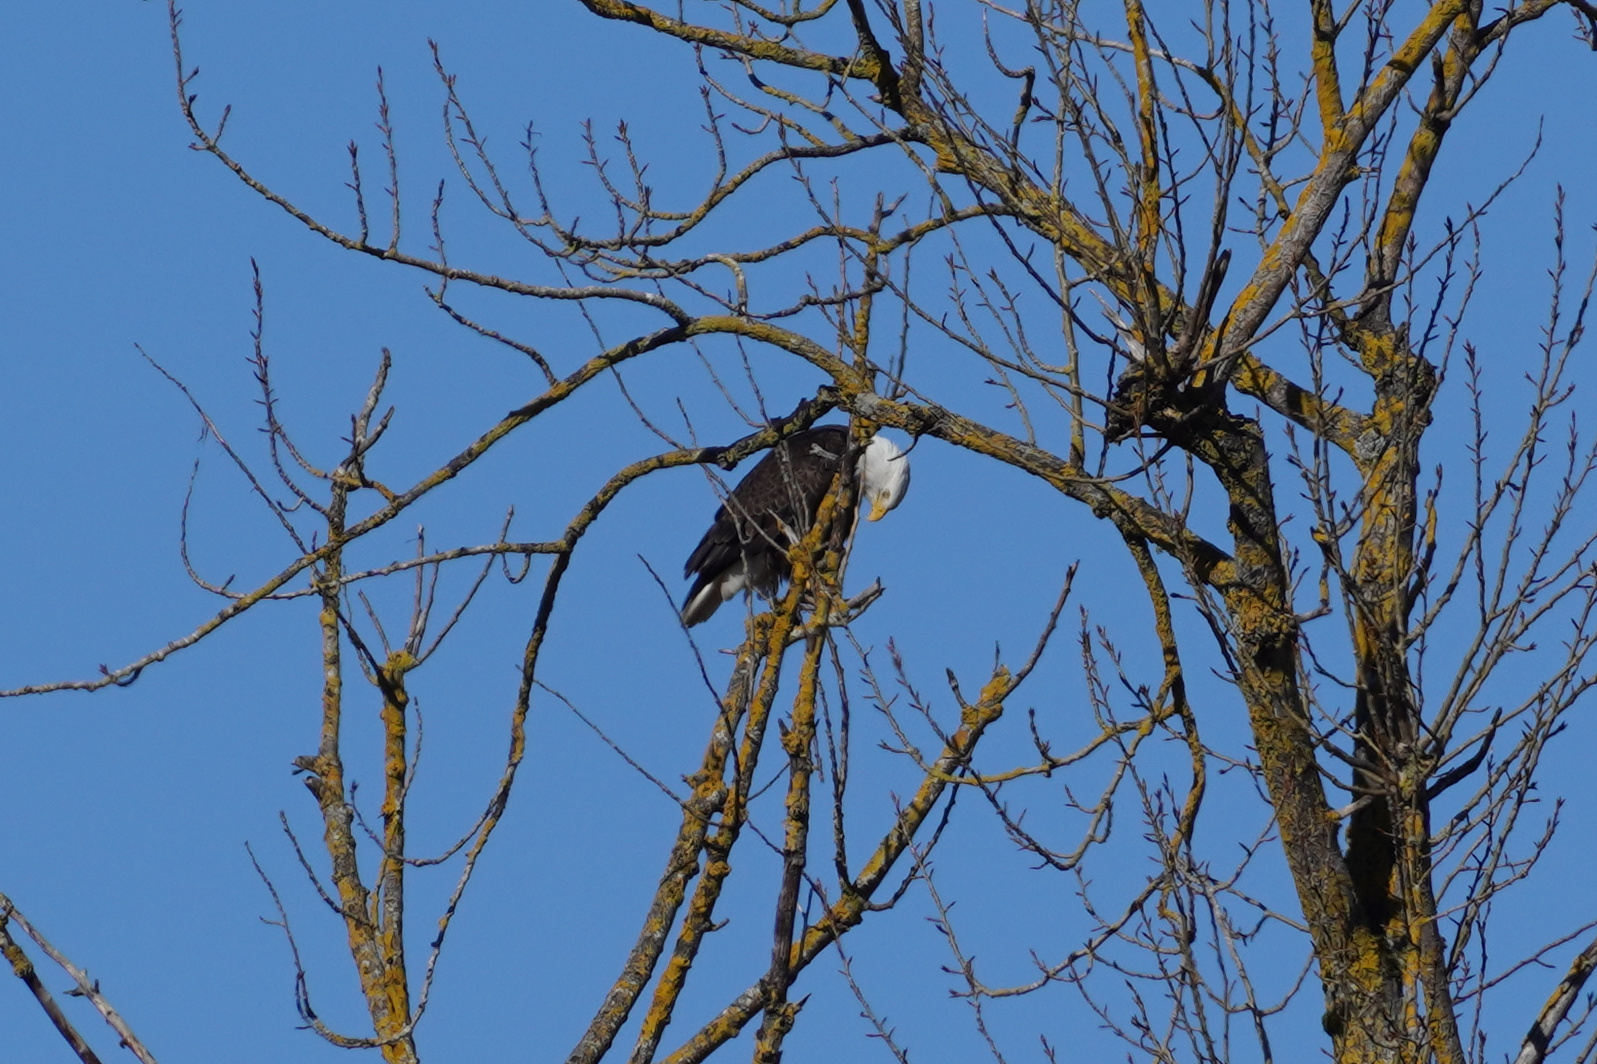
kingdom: Animalia
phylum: Chordata
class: Aves
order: Accipitriformes
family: Accipitridae
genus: Haliaeetus
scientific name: Haliaeetus leucocephalus
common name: Bald eagle
